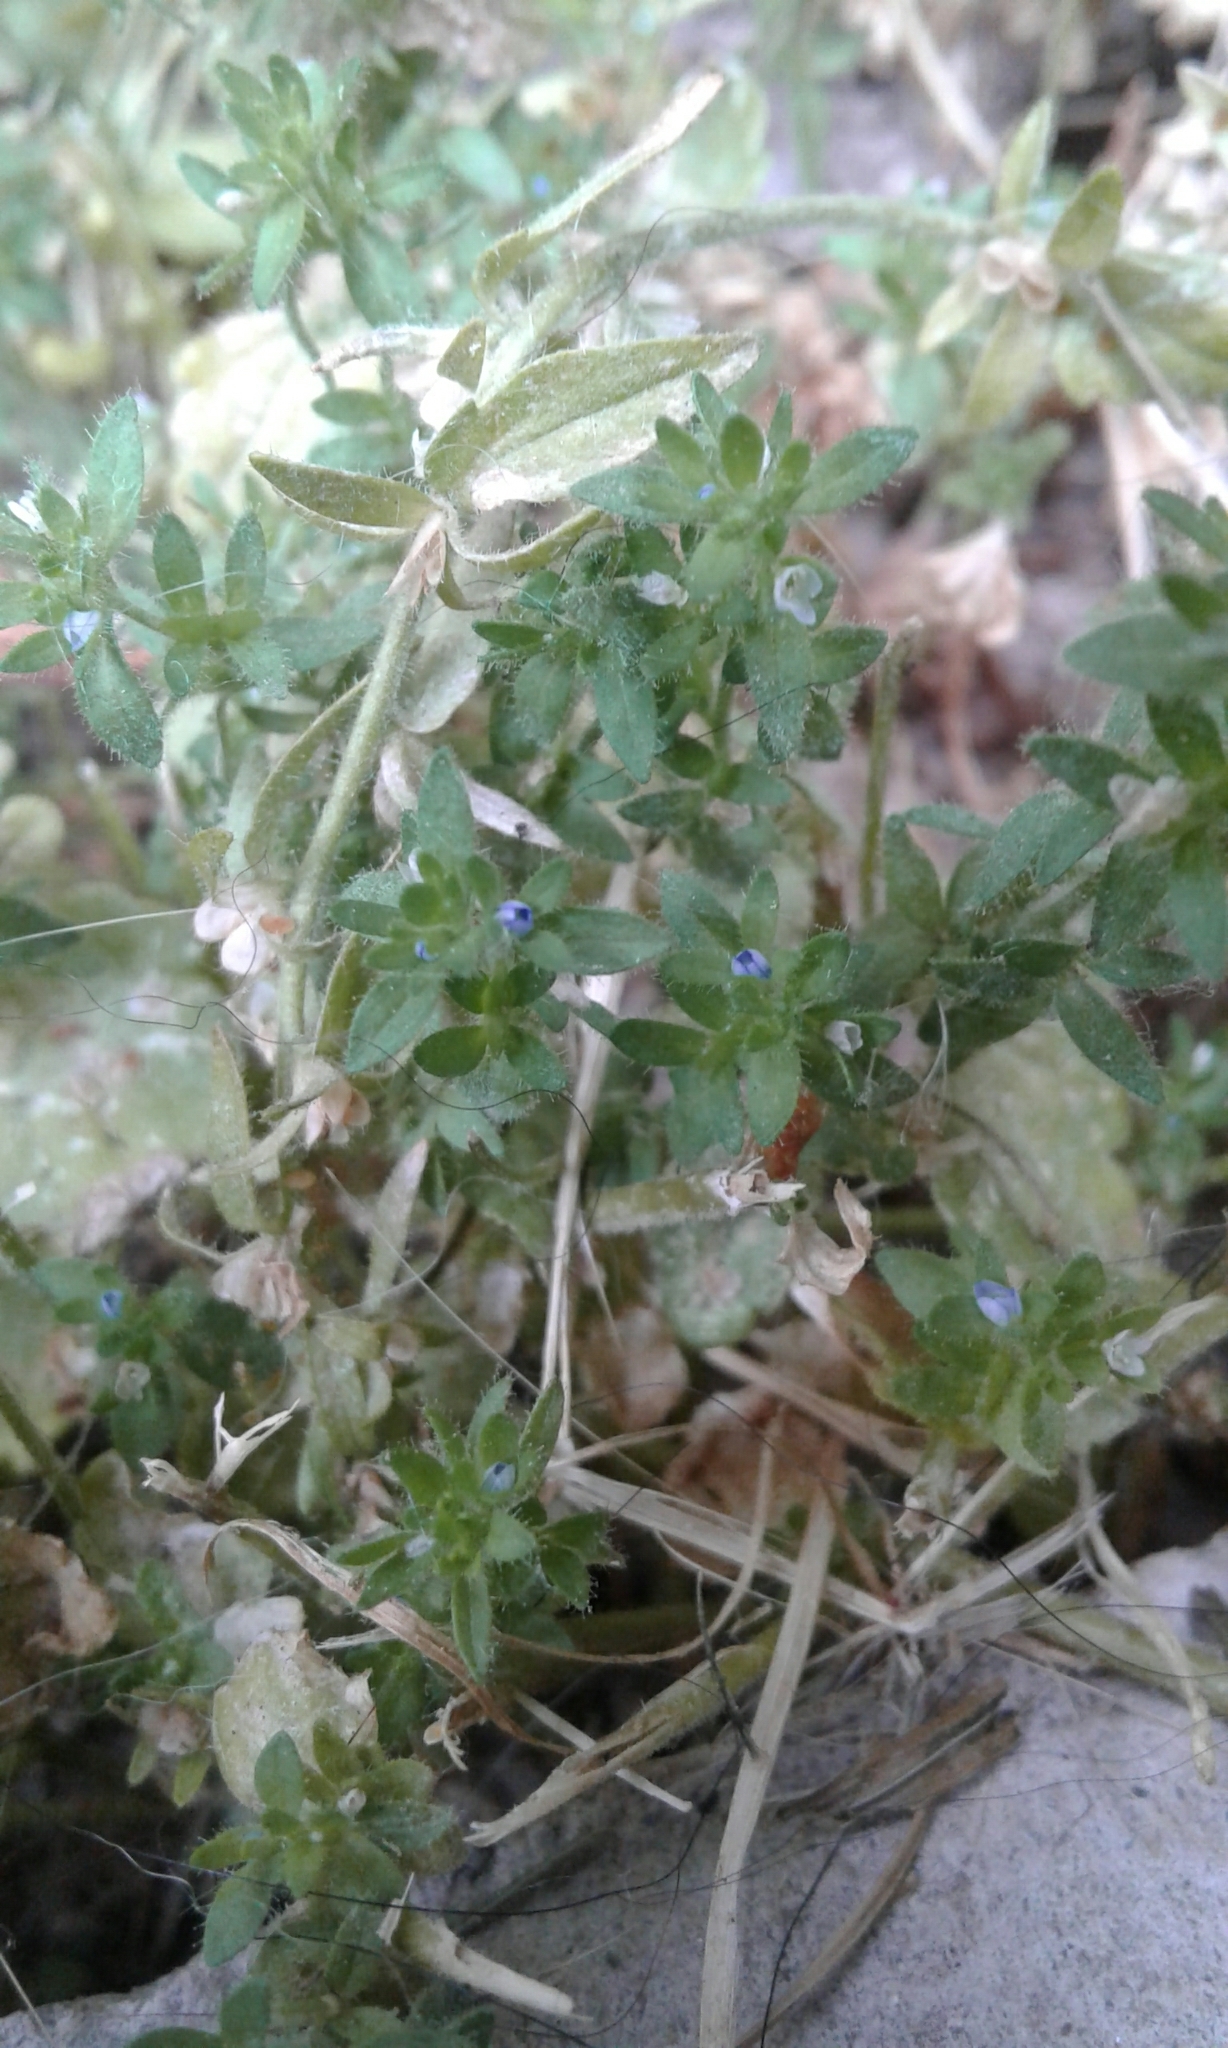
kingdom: Plantae
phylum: Tracheophyta
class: Magnoliopsida
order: Lamiales
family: Plantaginaceae
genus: Veronica
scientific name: Veronica arvensis
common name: Corn speedwell
